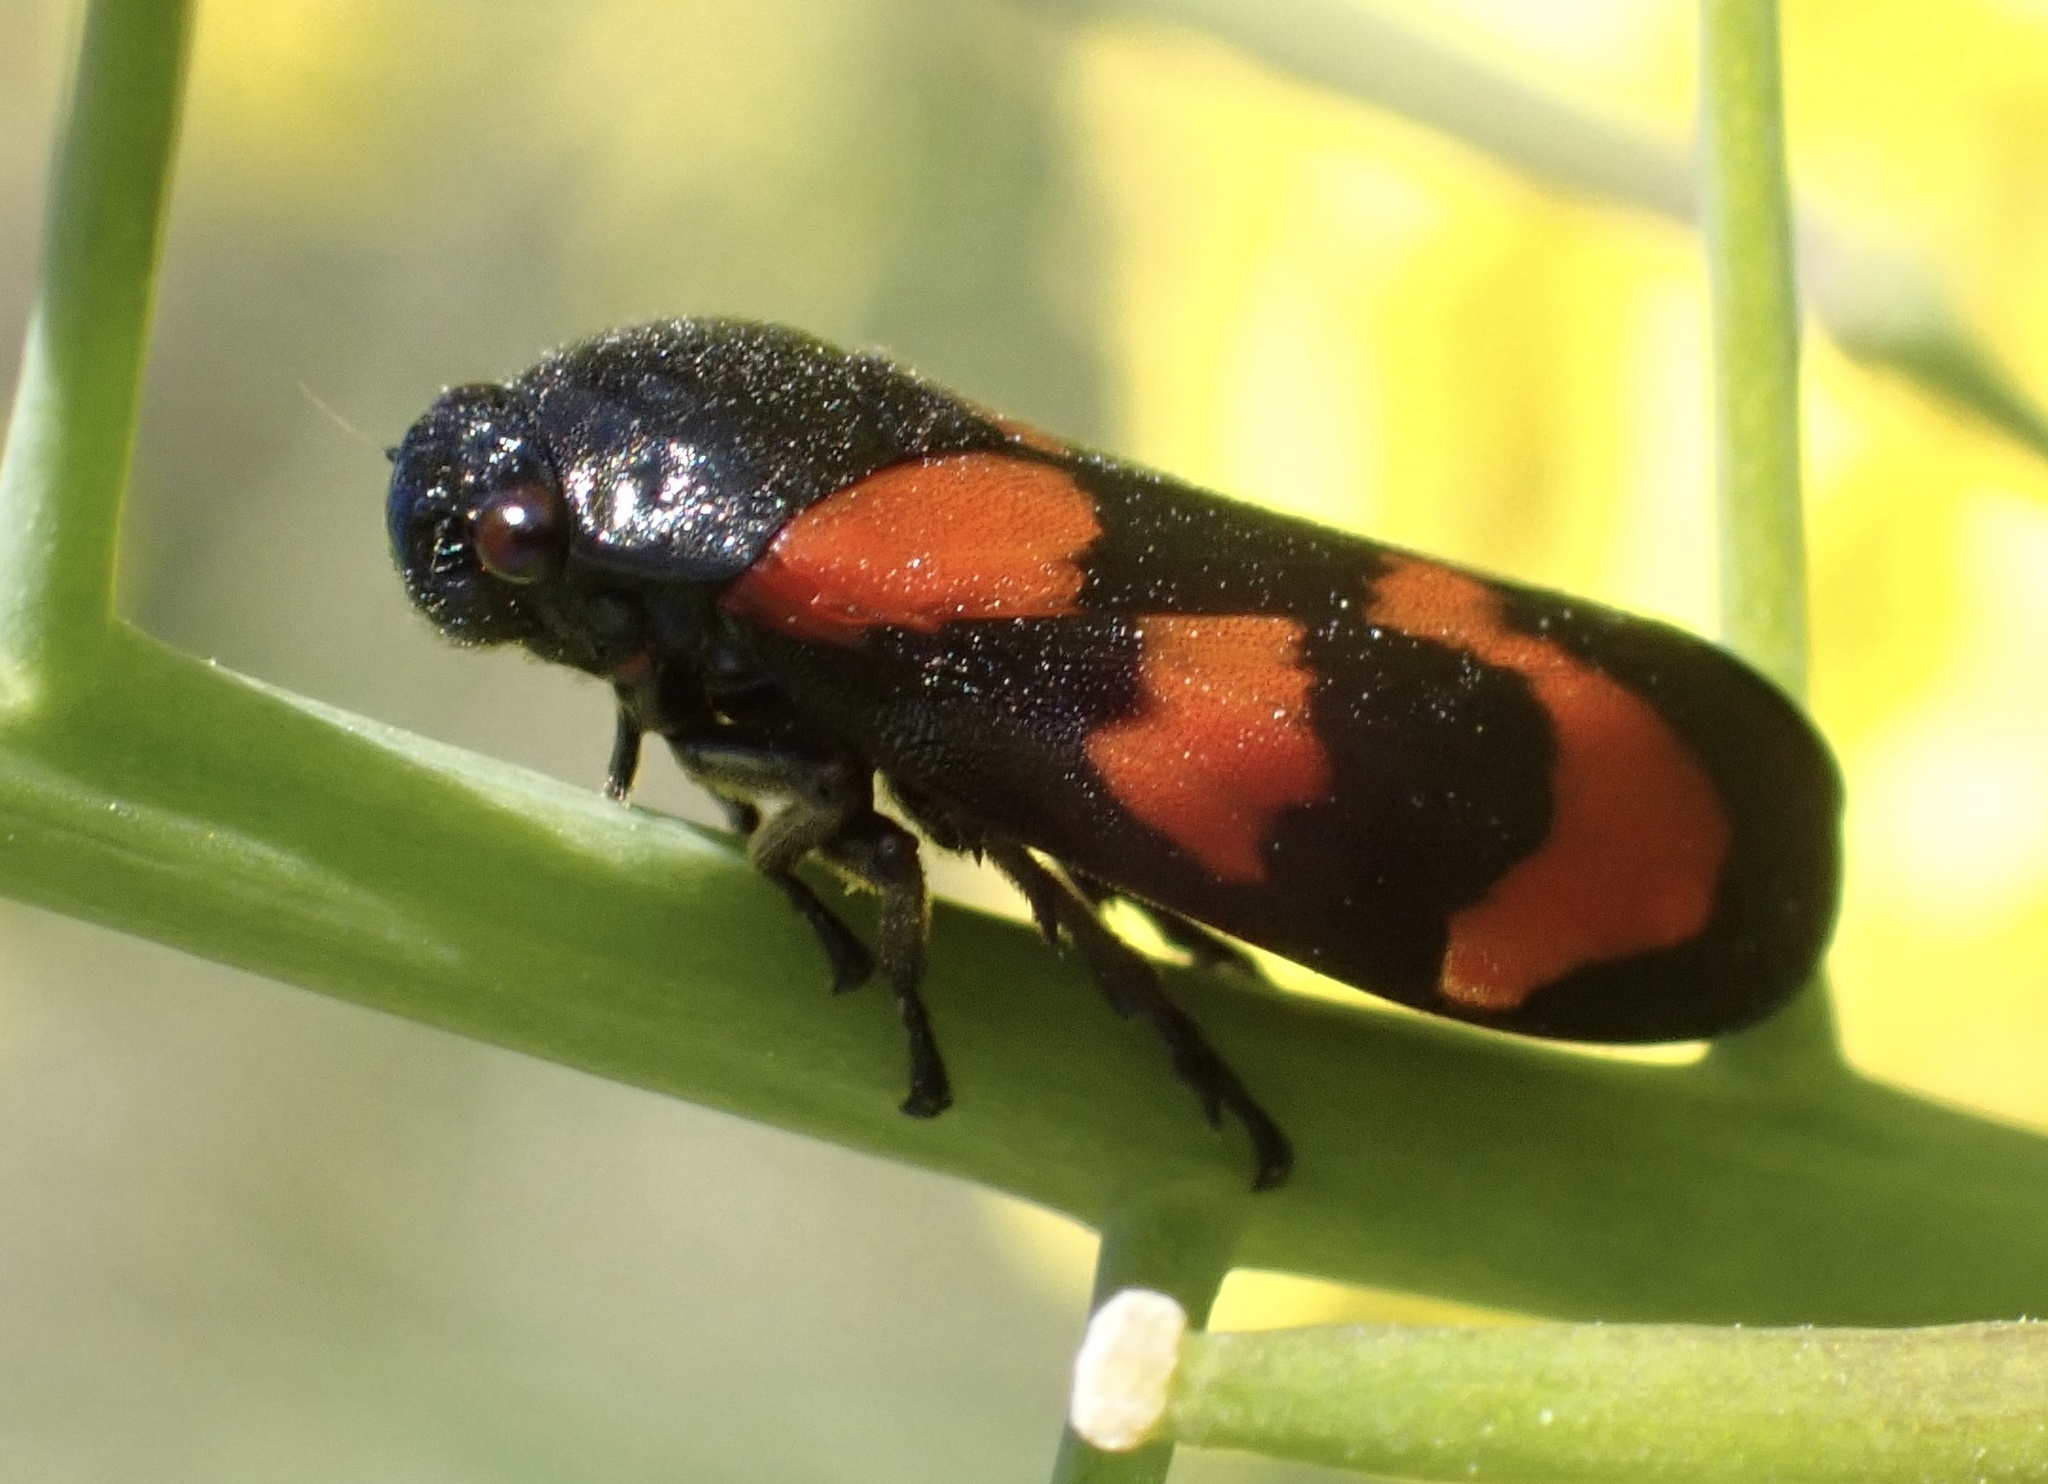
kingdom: Animalia
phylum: Arthropoda
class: Insecta
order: Hemiptera
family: Cercopidae
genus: Cercopis
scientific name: Cercopis vulnerata
